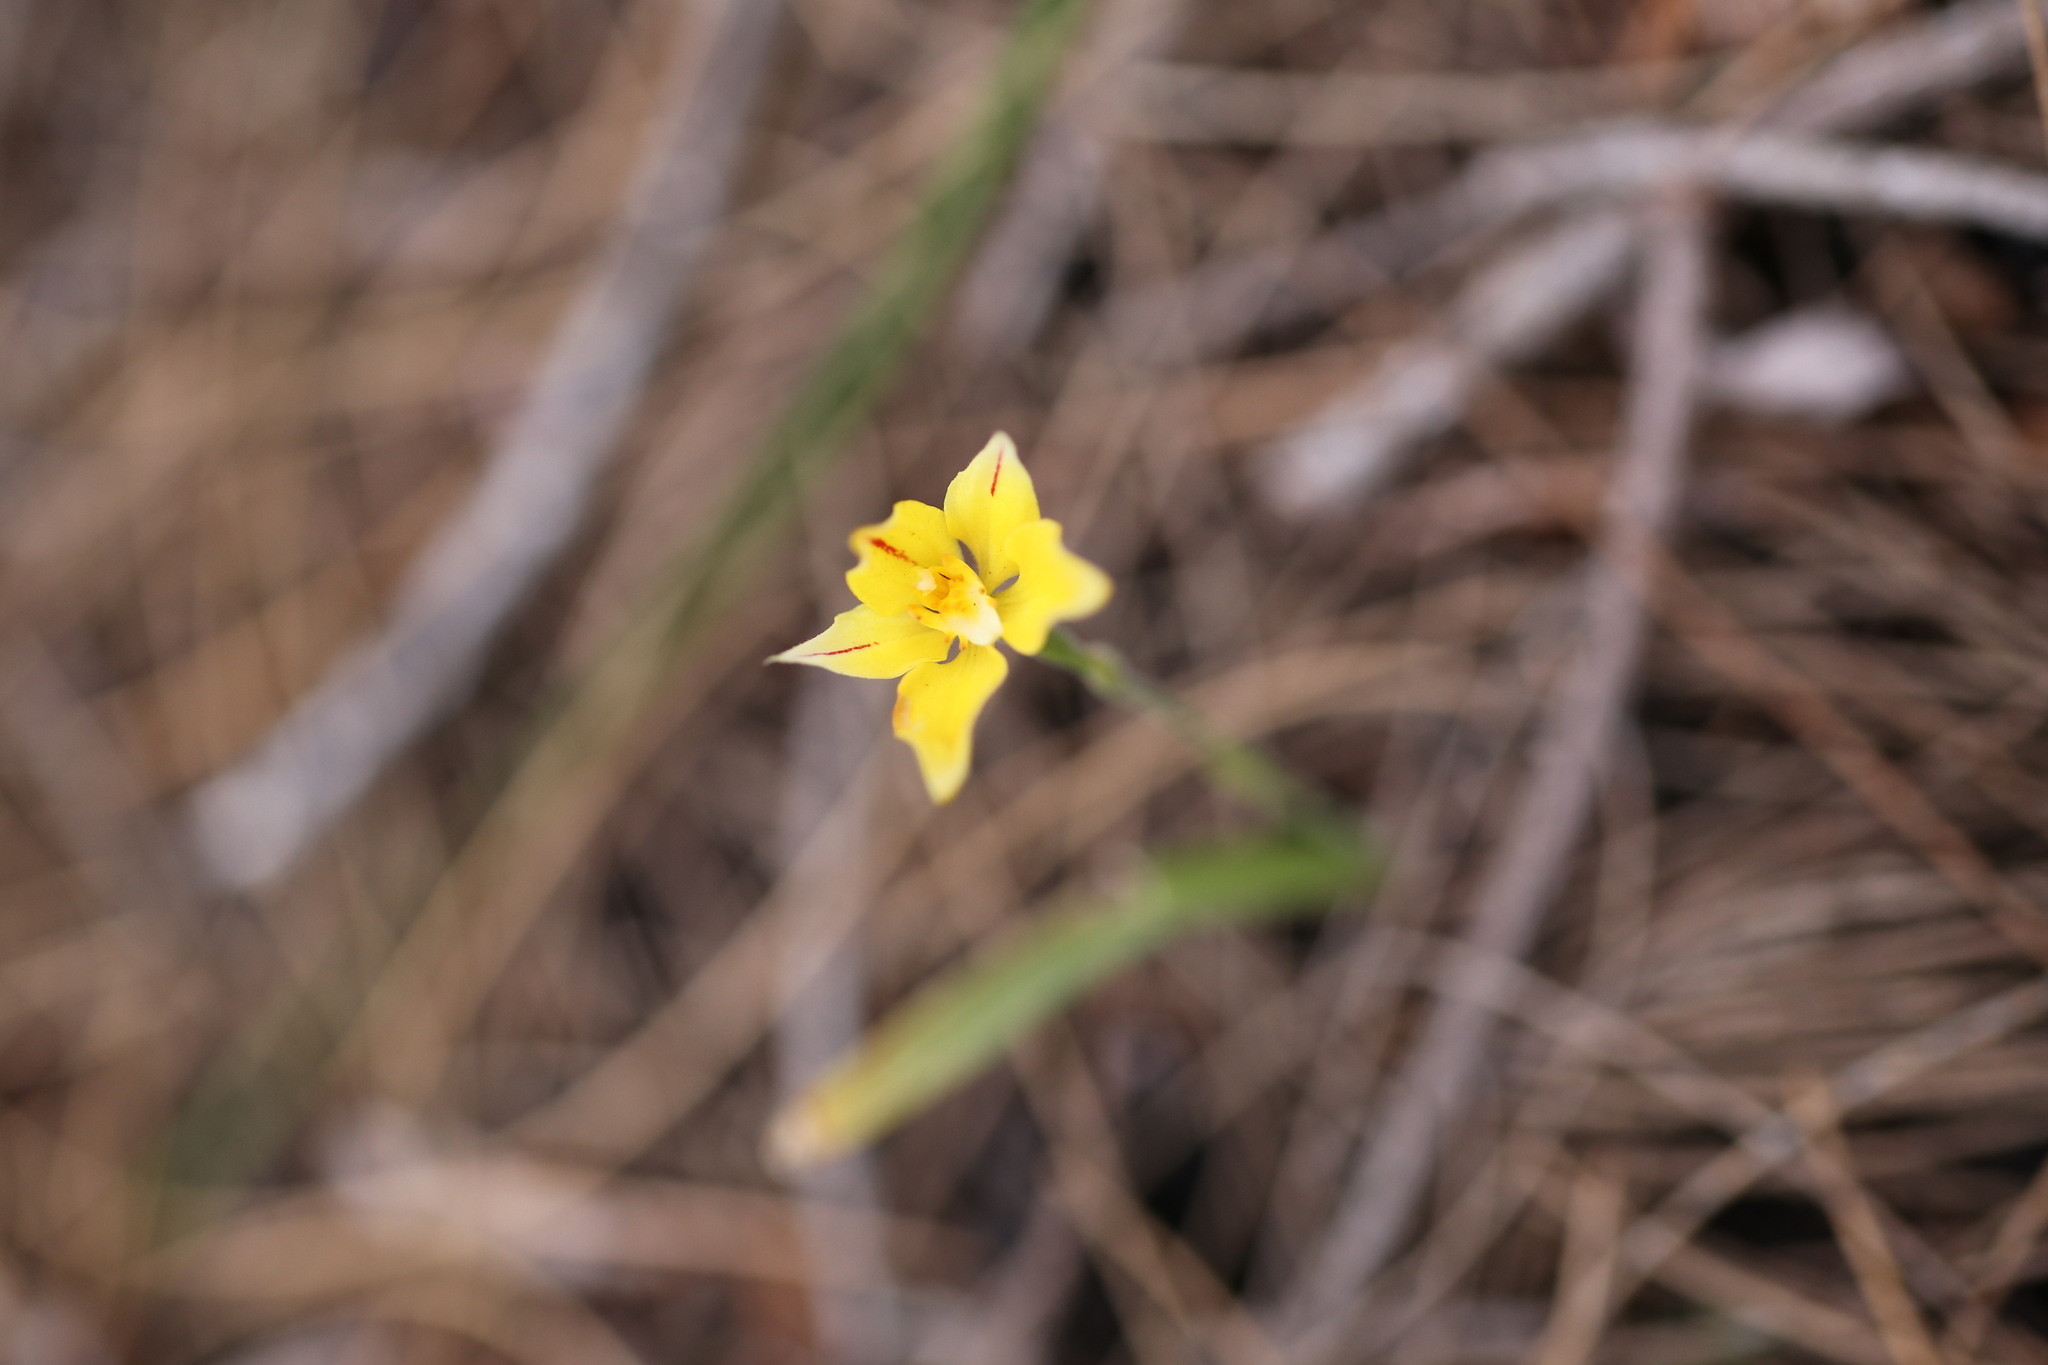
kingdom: Plantae
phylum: Tracheophyta
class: Liliopsida
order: Asparagales
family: Orchidaceae
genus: Caladenia
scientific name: Caladenia flava
